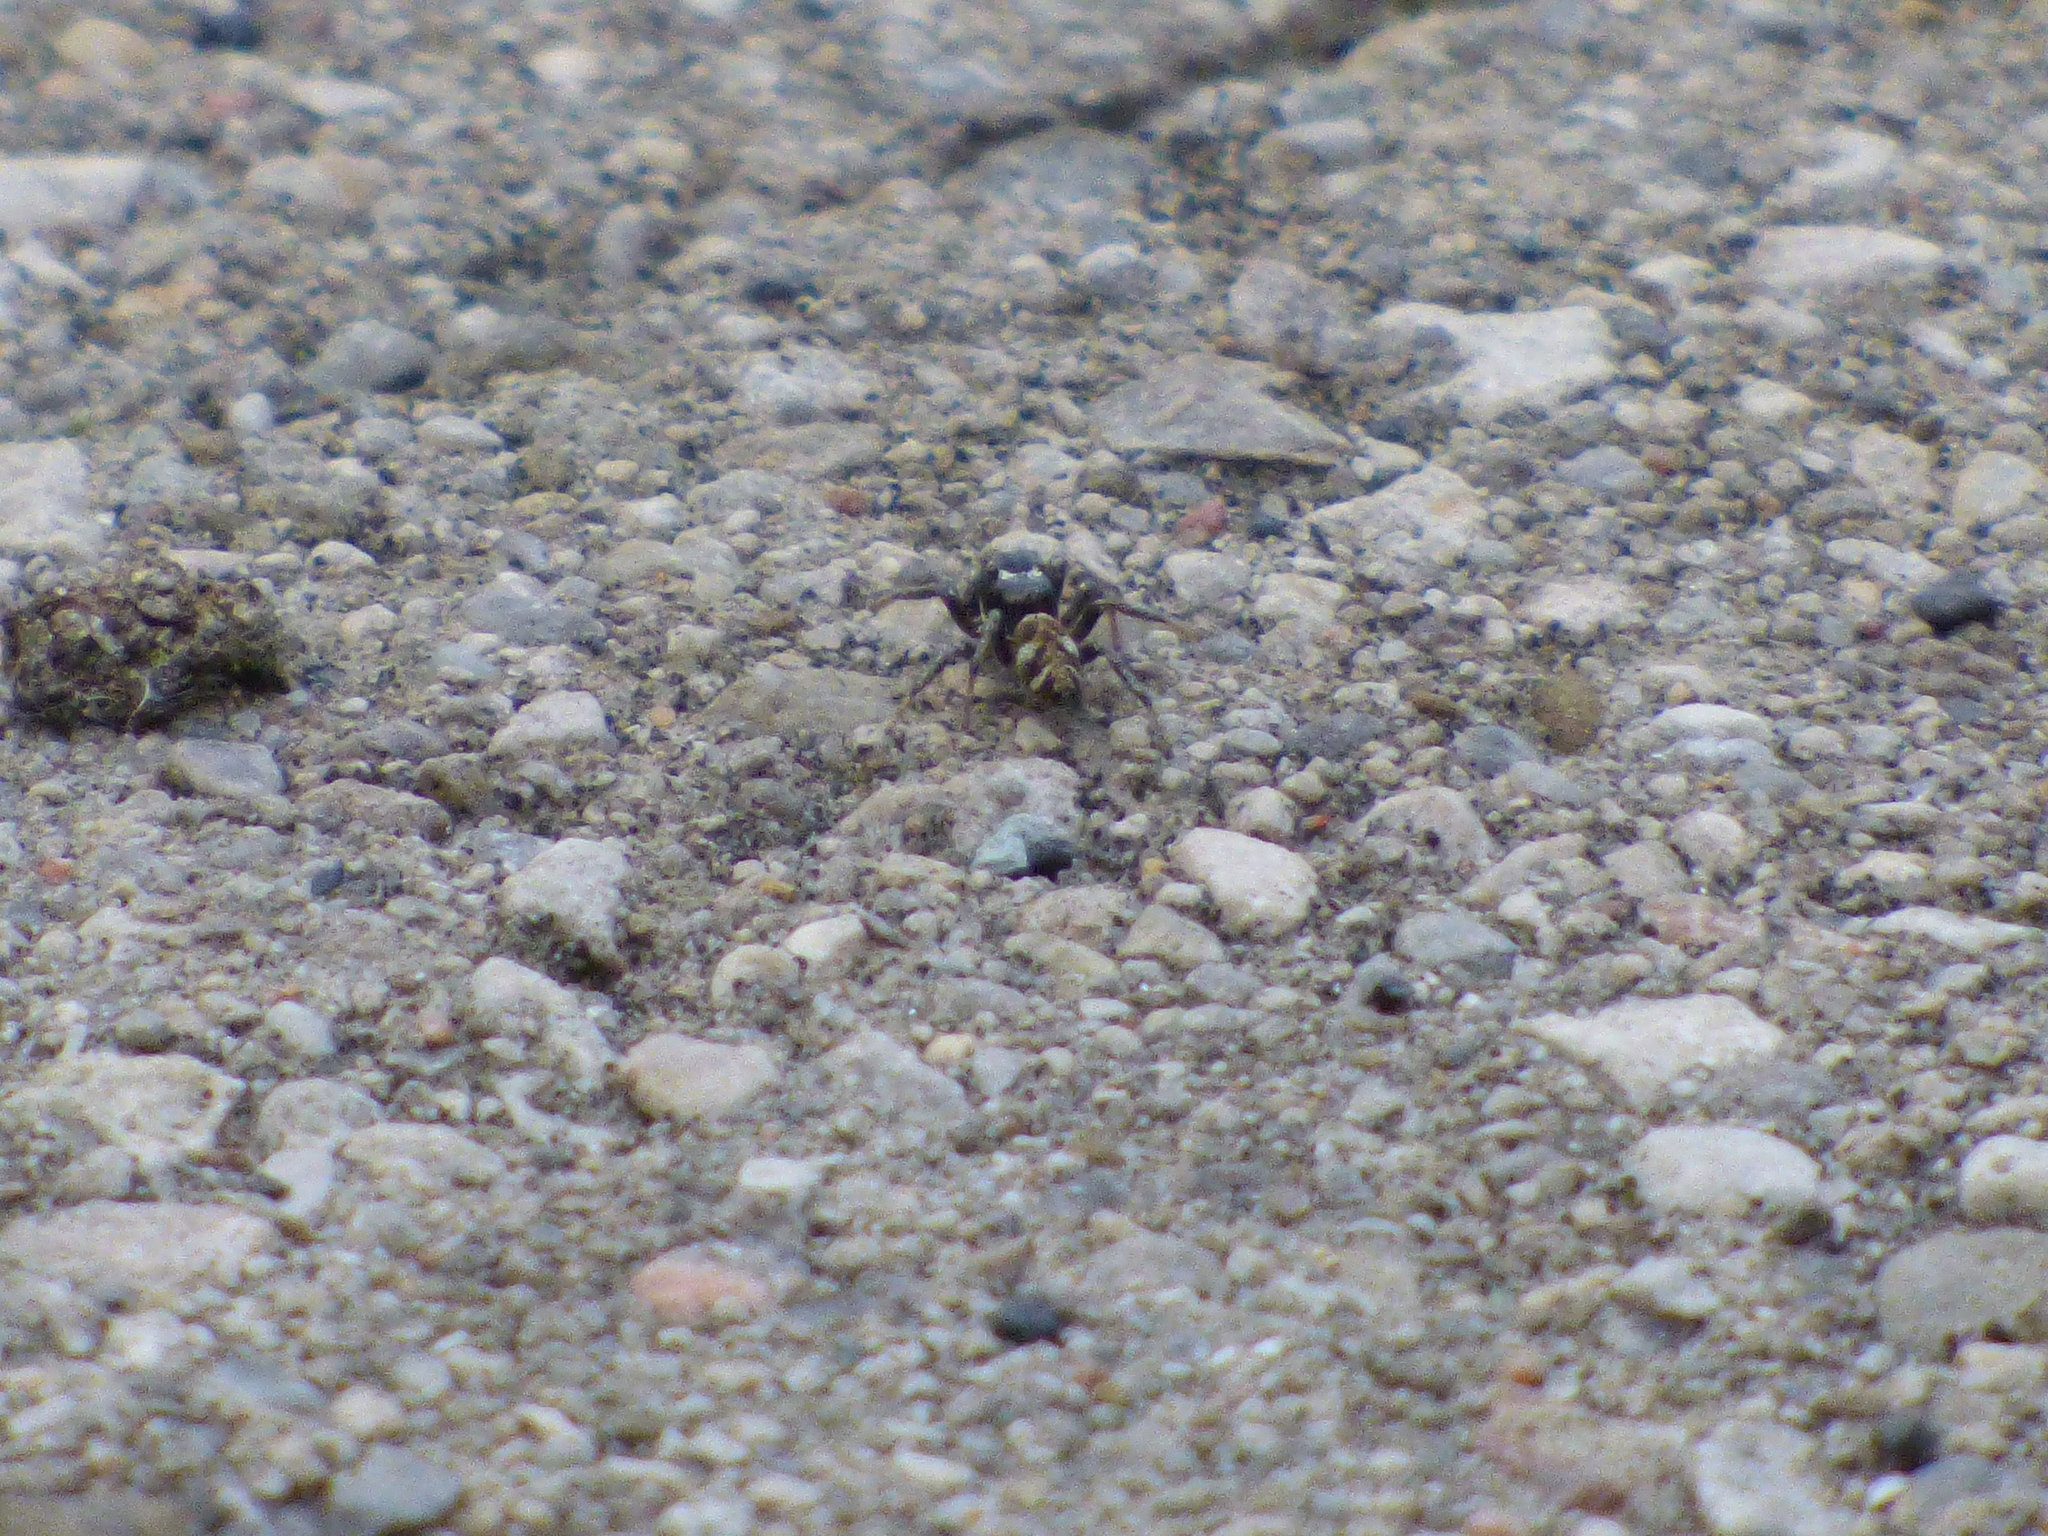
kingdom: Animalia
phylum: Arthropoda
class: Arachnida
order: Araneae
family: Salticidae
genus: Salticus
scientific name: Salticus scenicus
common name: Zebra jumper
